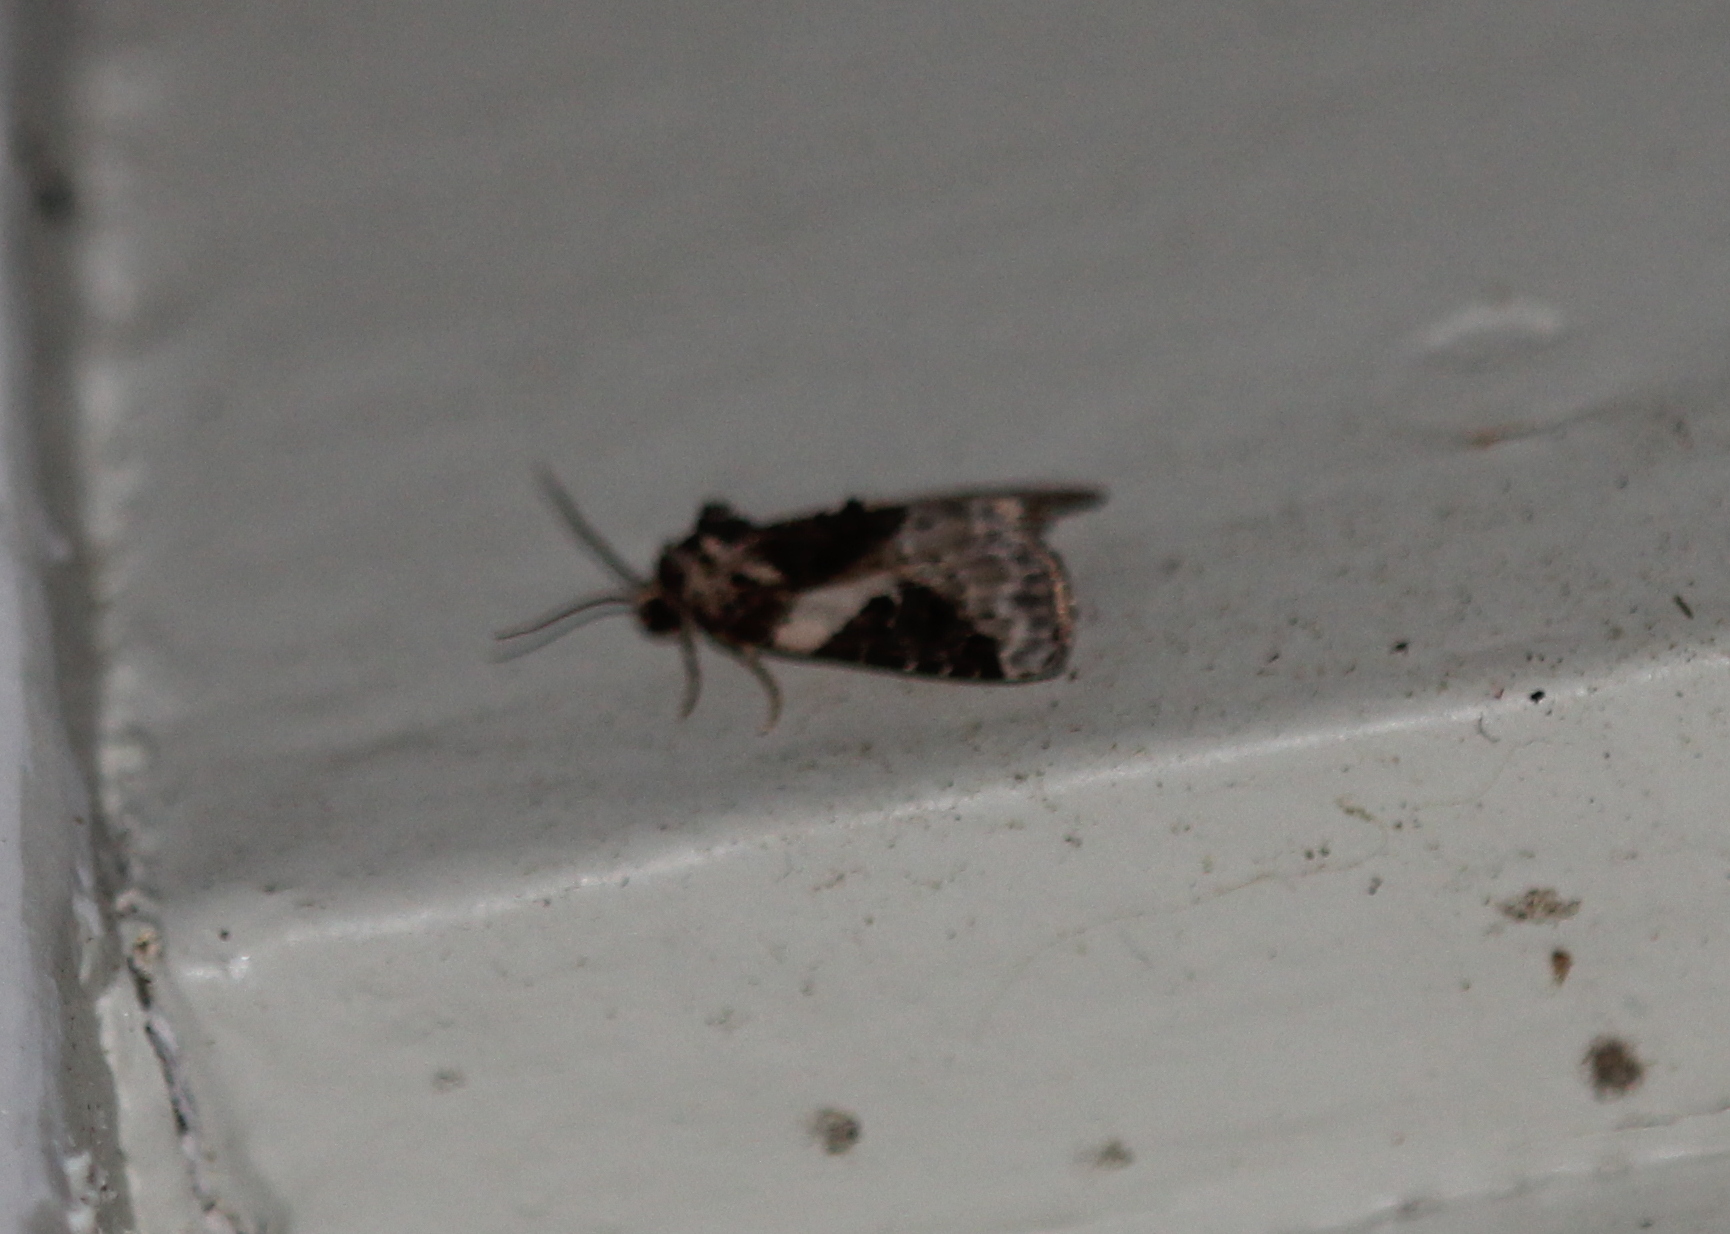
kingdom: Animalia
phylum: Arthropoda
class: Insecta
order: Lepidoptera
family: Noctuidae
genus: Pseudeustrotia
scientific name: Pseudeustrotia carneola
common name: Pink-barred lithacodia moth
